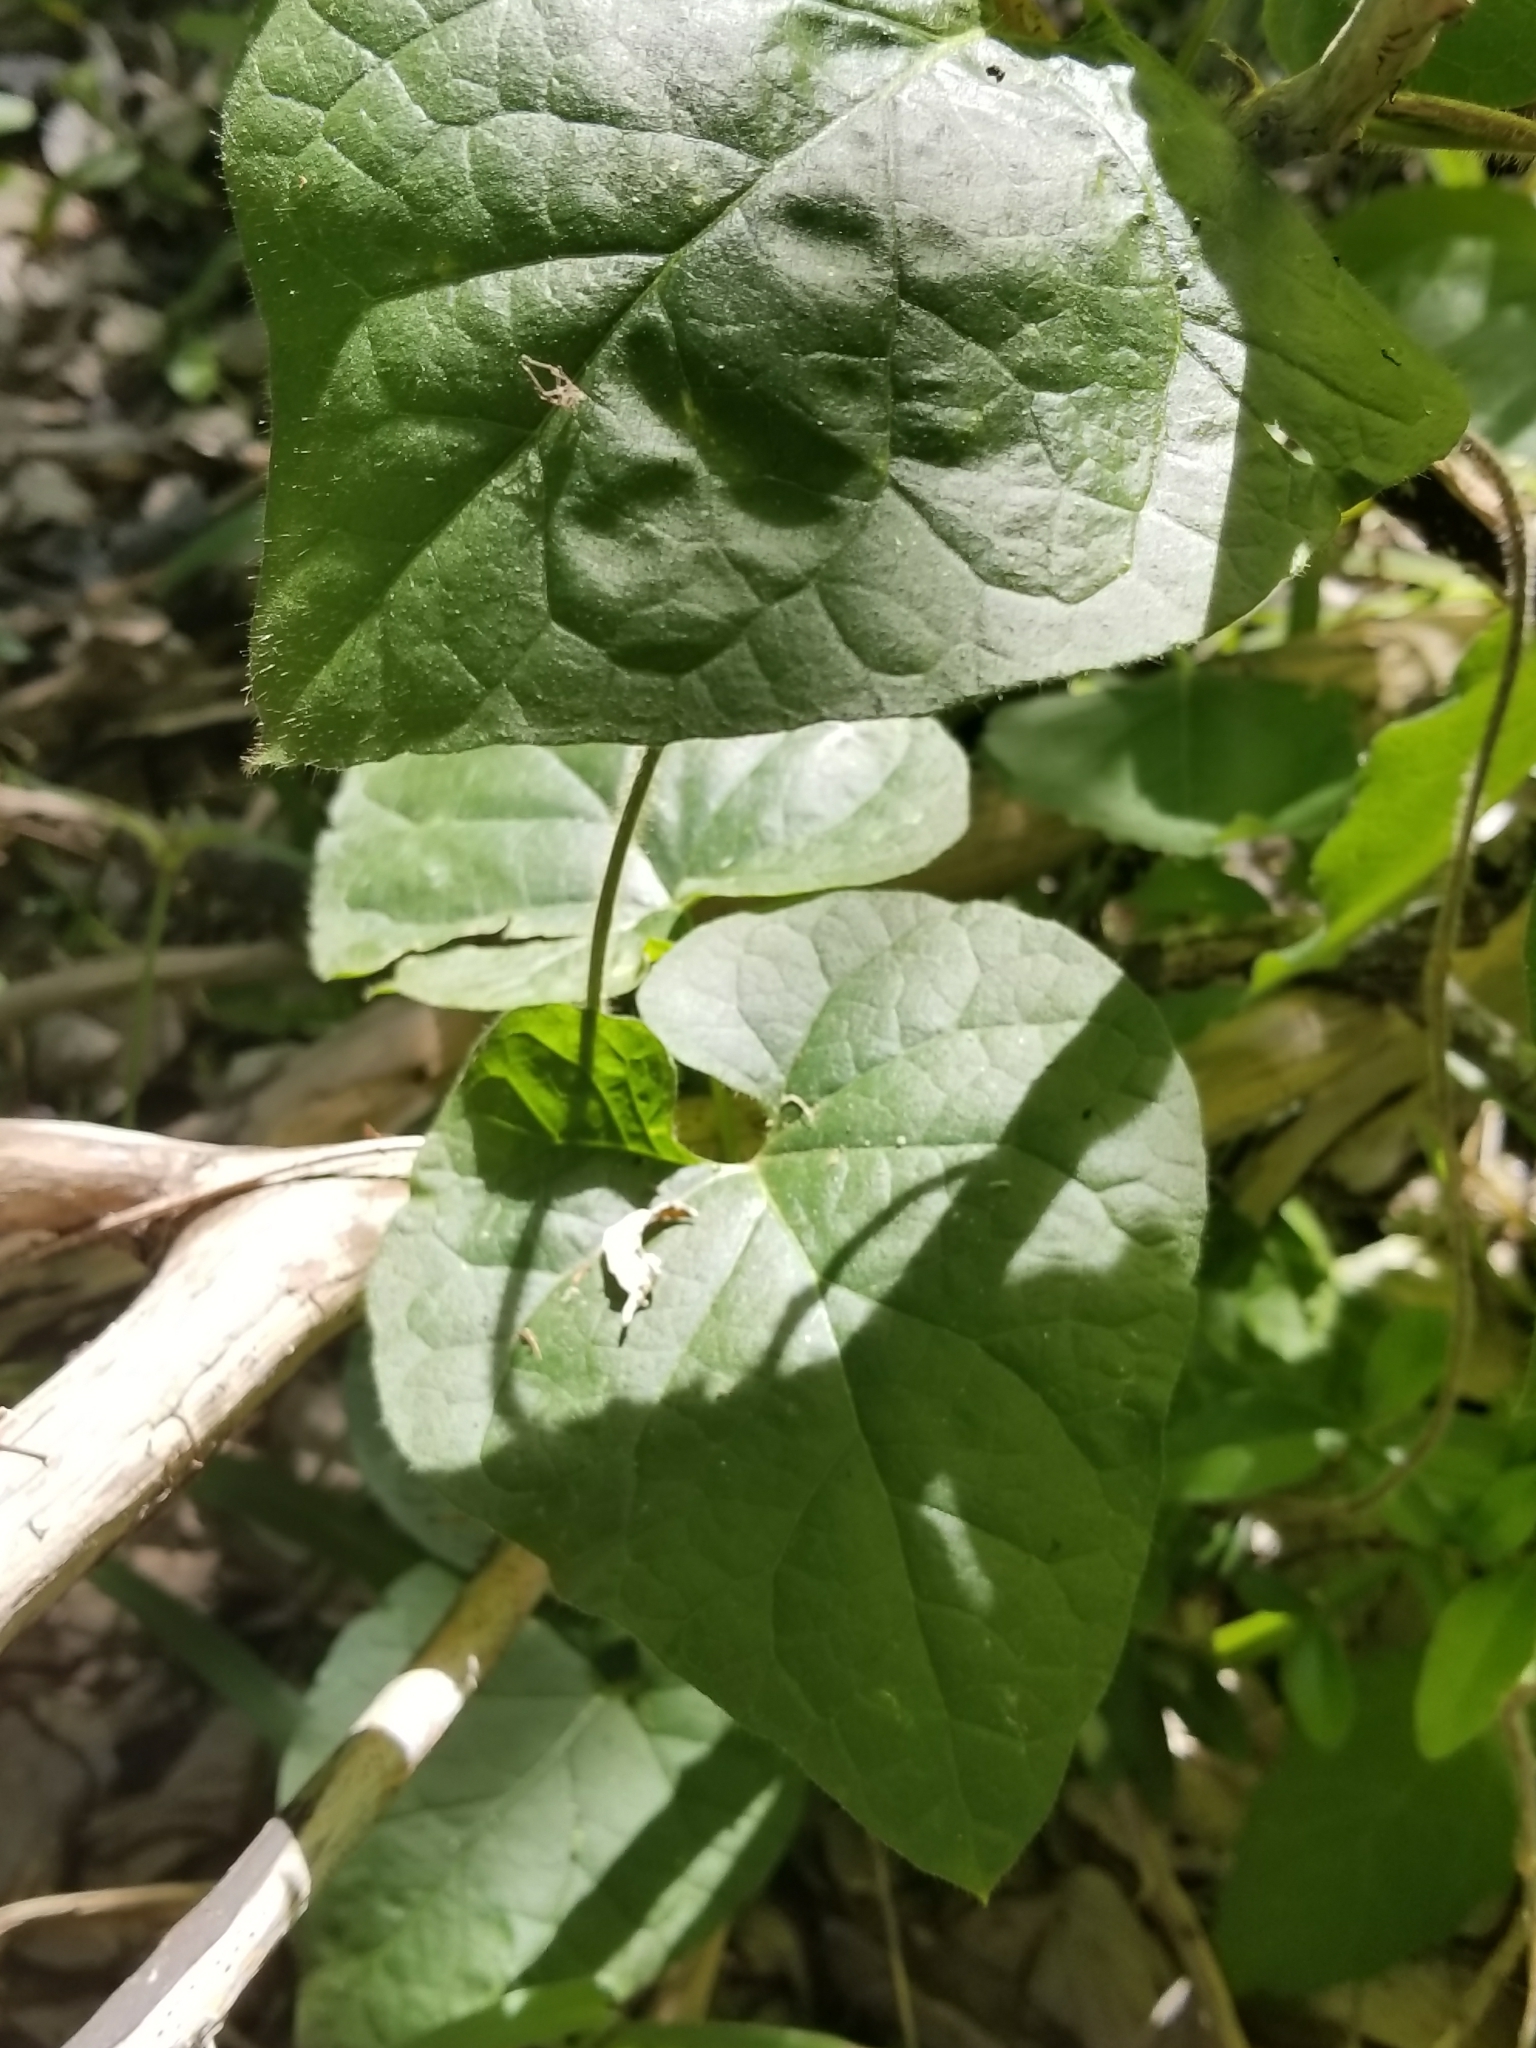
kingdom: Plantae
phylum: Tracheophyta
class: Magnoliopsida
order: Gentianales
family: Apocynaceae
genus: Dictyanthus
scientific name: Dictyanthus reticulatus
